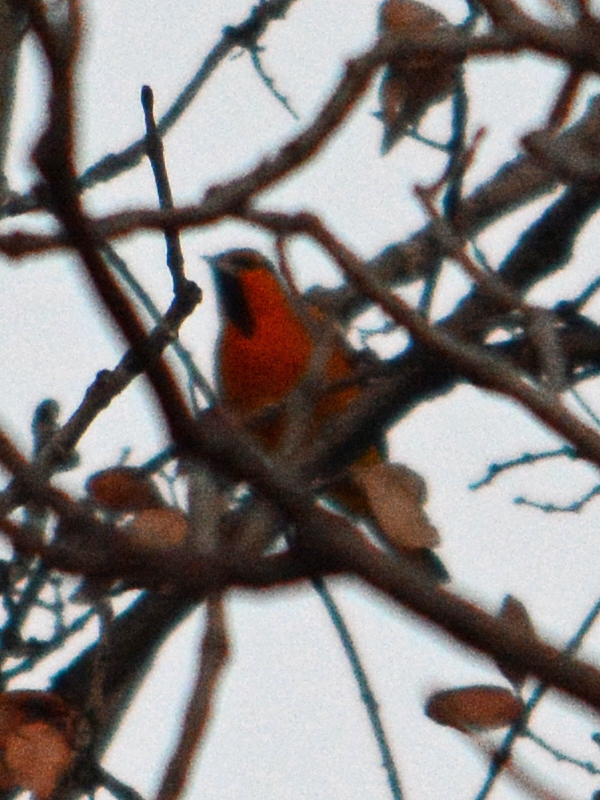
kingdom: Animalia
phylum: Chordata
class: Aves
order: Passeriformes
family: Icteridae
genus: Icterus
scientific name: Icterus bullockii
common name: Bullock's oriole
